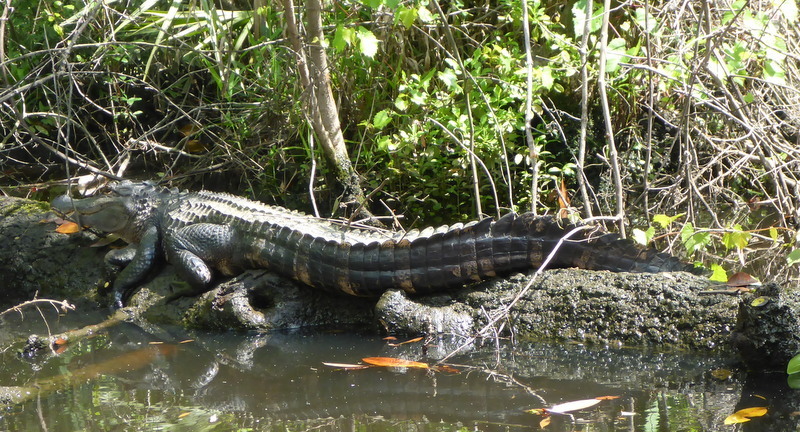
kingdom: Animalia
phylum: Chordata
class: Crocodylia
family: Alligatoridae
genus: Alligator
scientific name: Alligator mississippiensis
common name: American alligator
